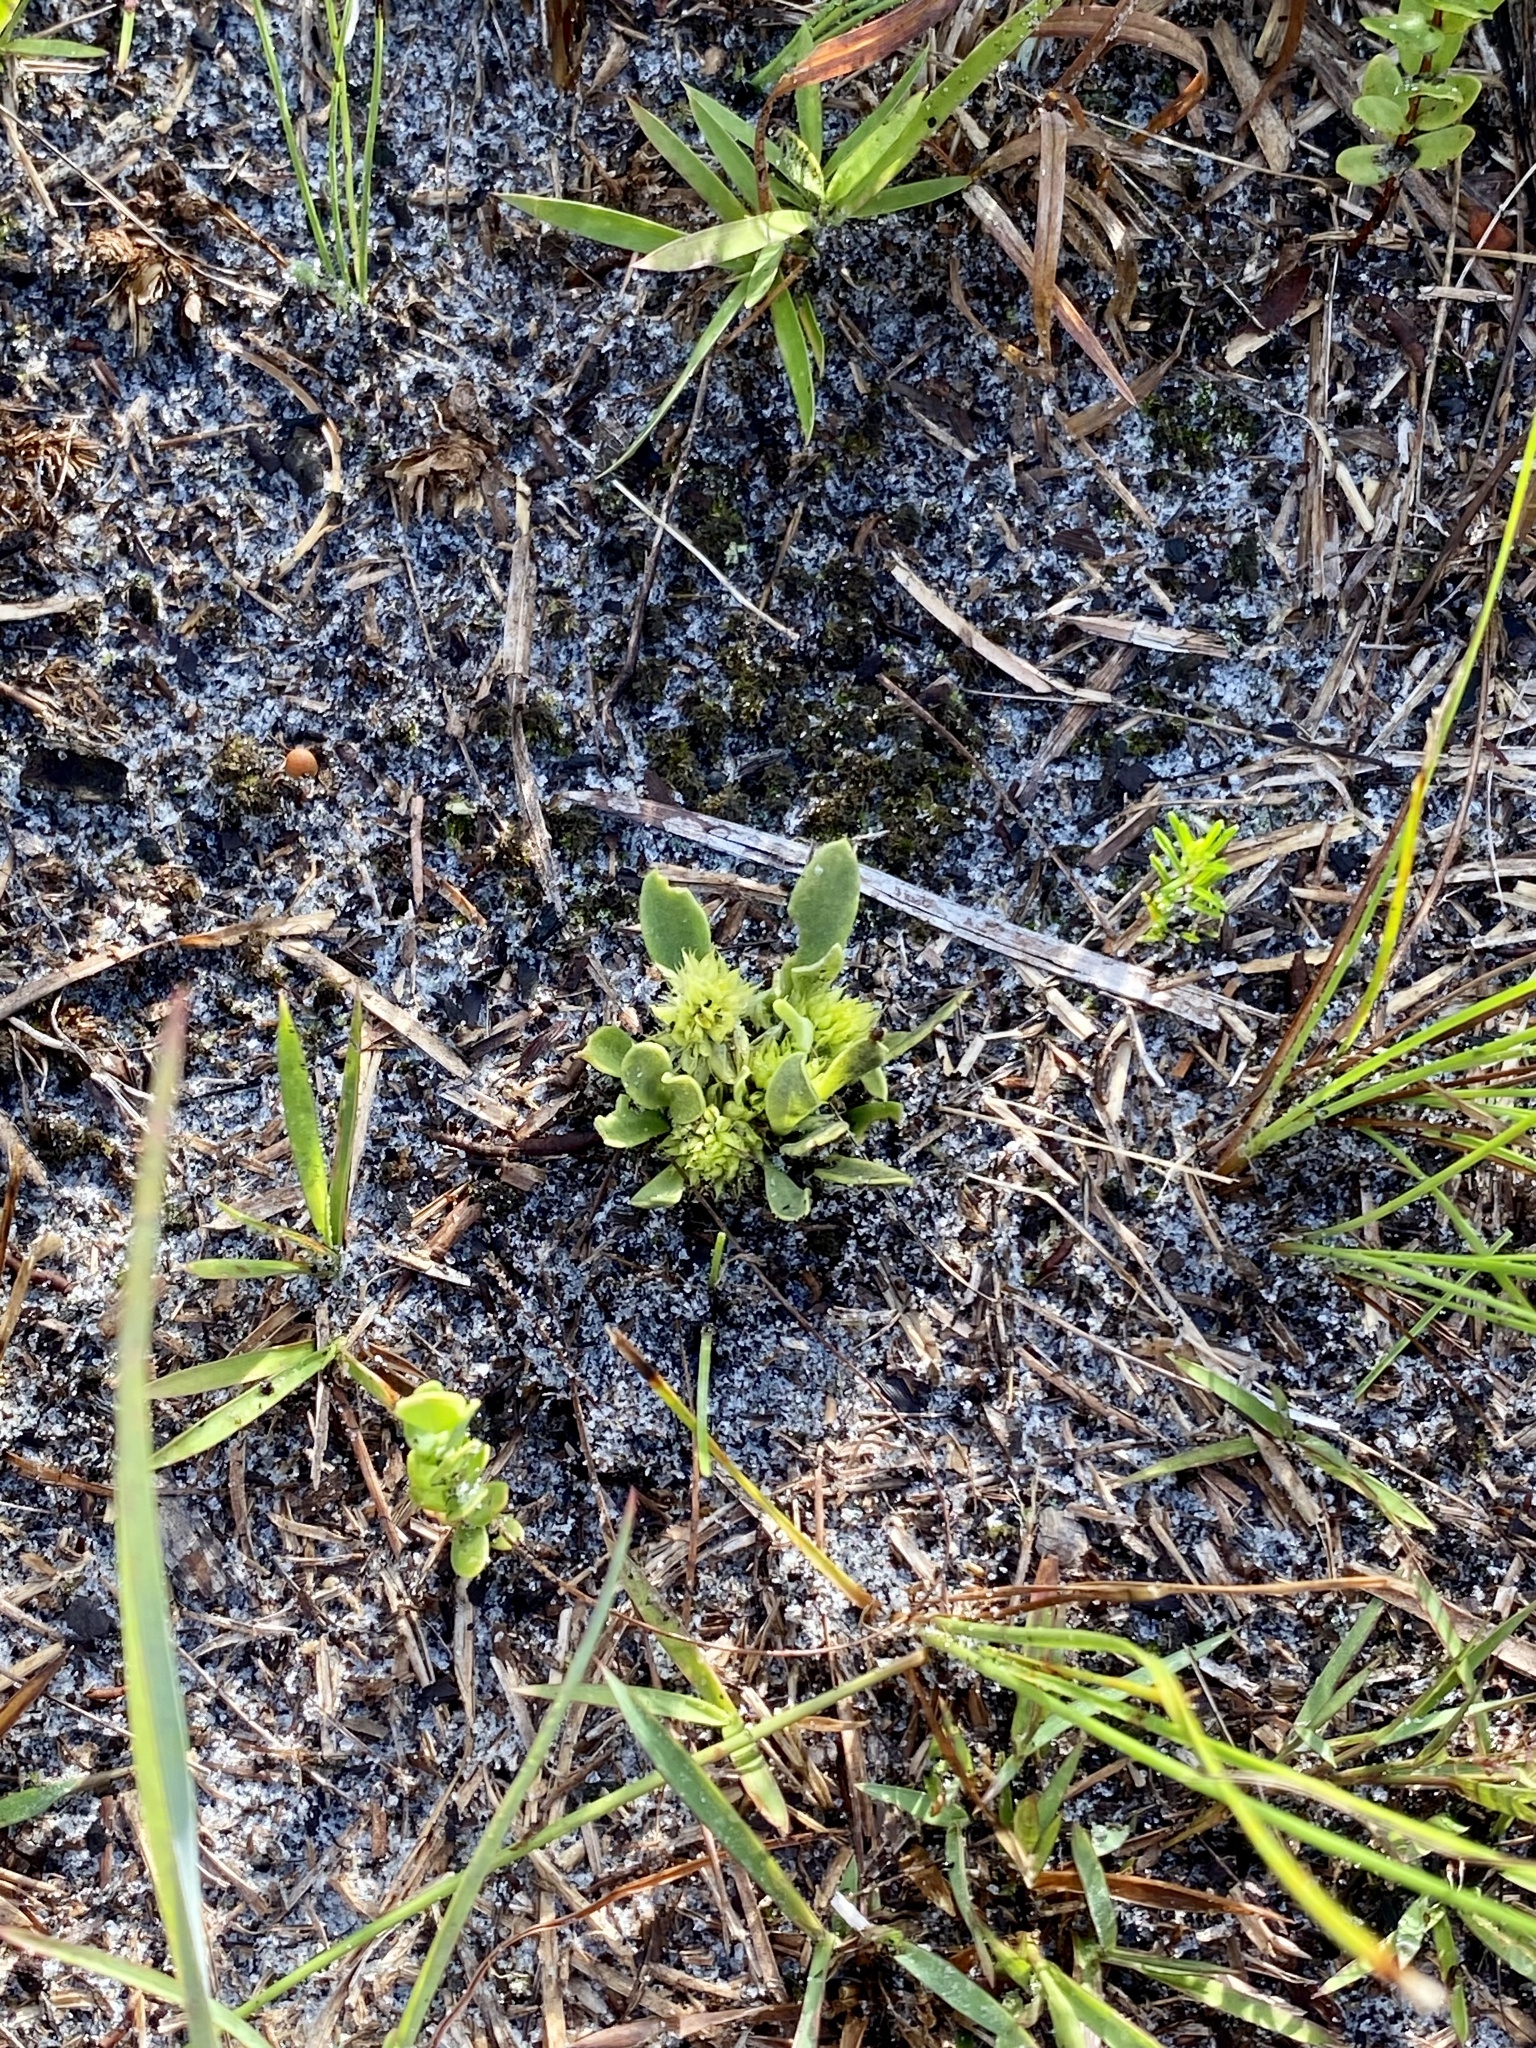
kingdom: Plantae
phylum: Tracheophyta
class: Magnoliopsida
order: Fabales
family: Polygalaceae
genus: Polygala
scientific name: Polygala nana
